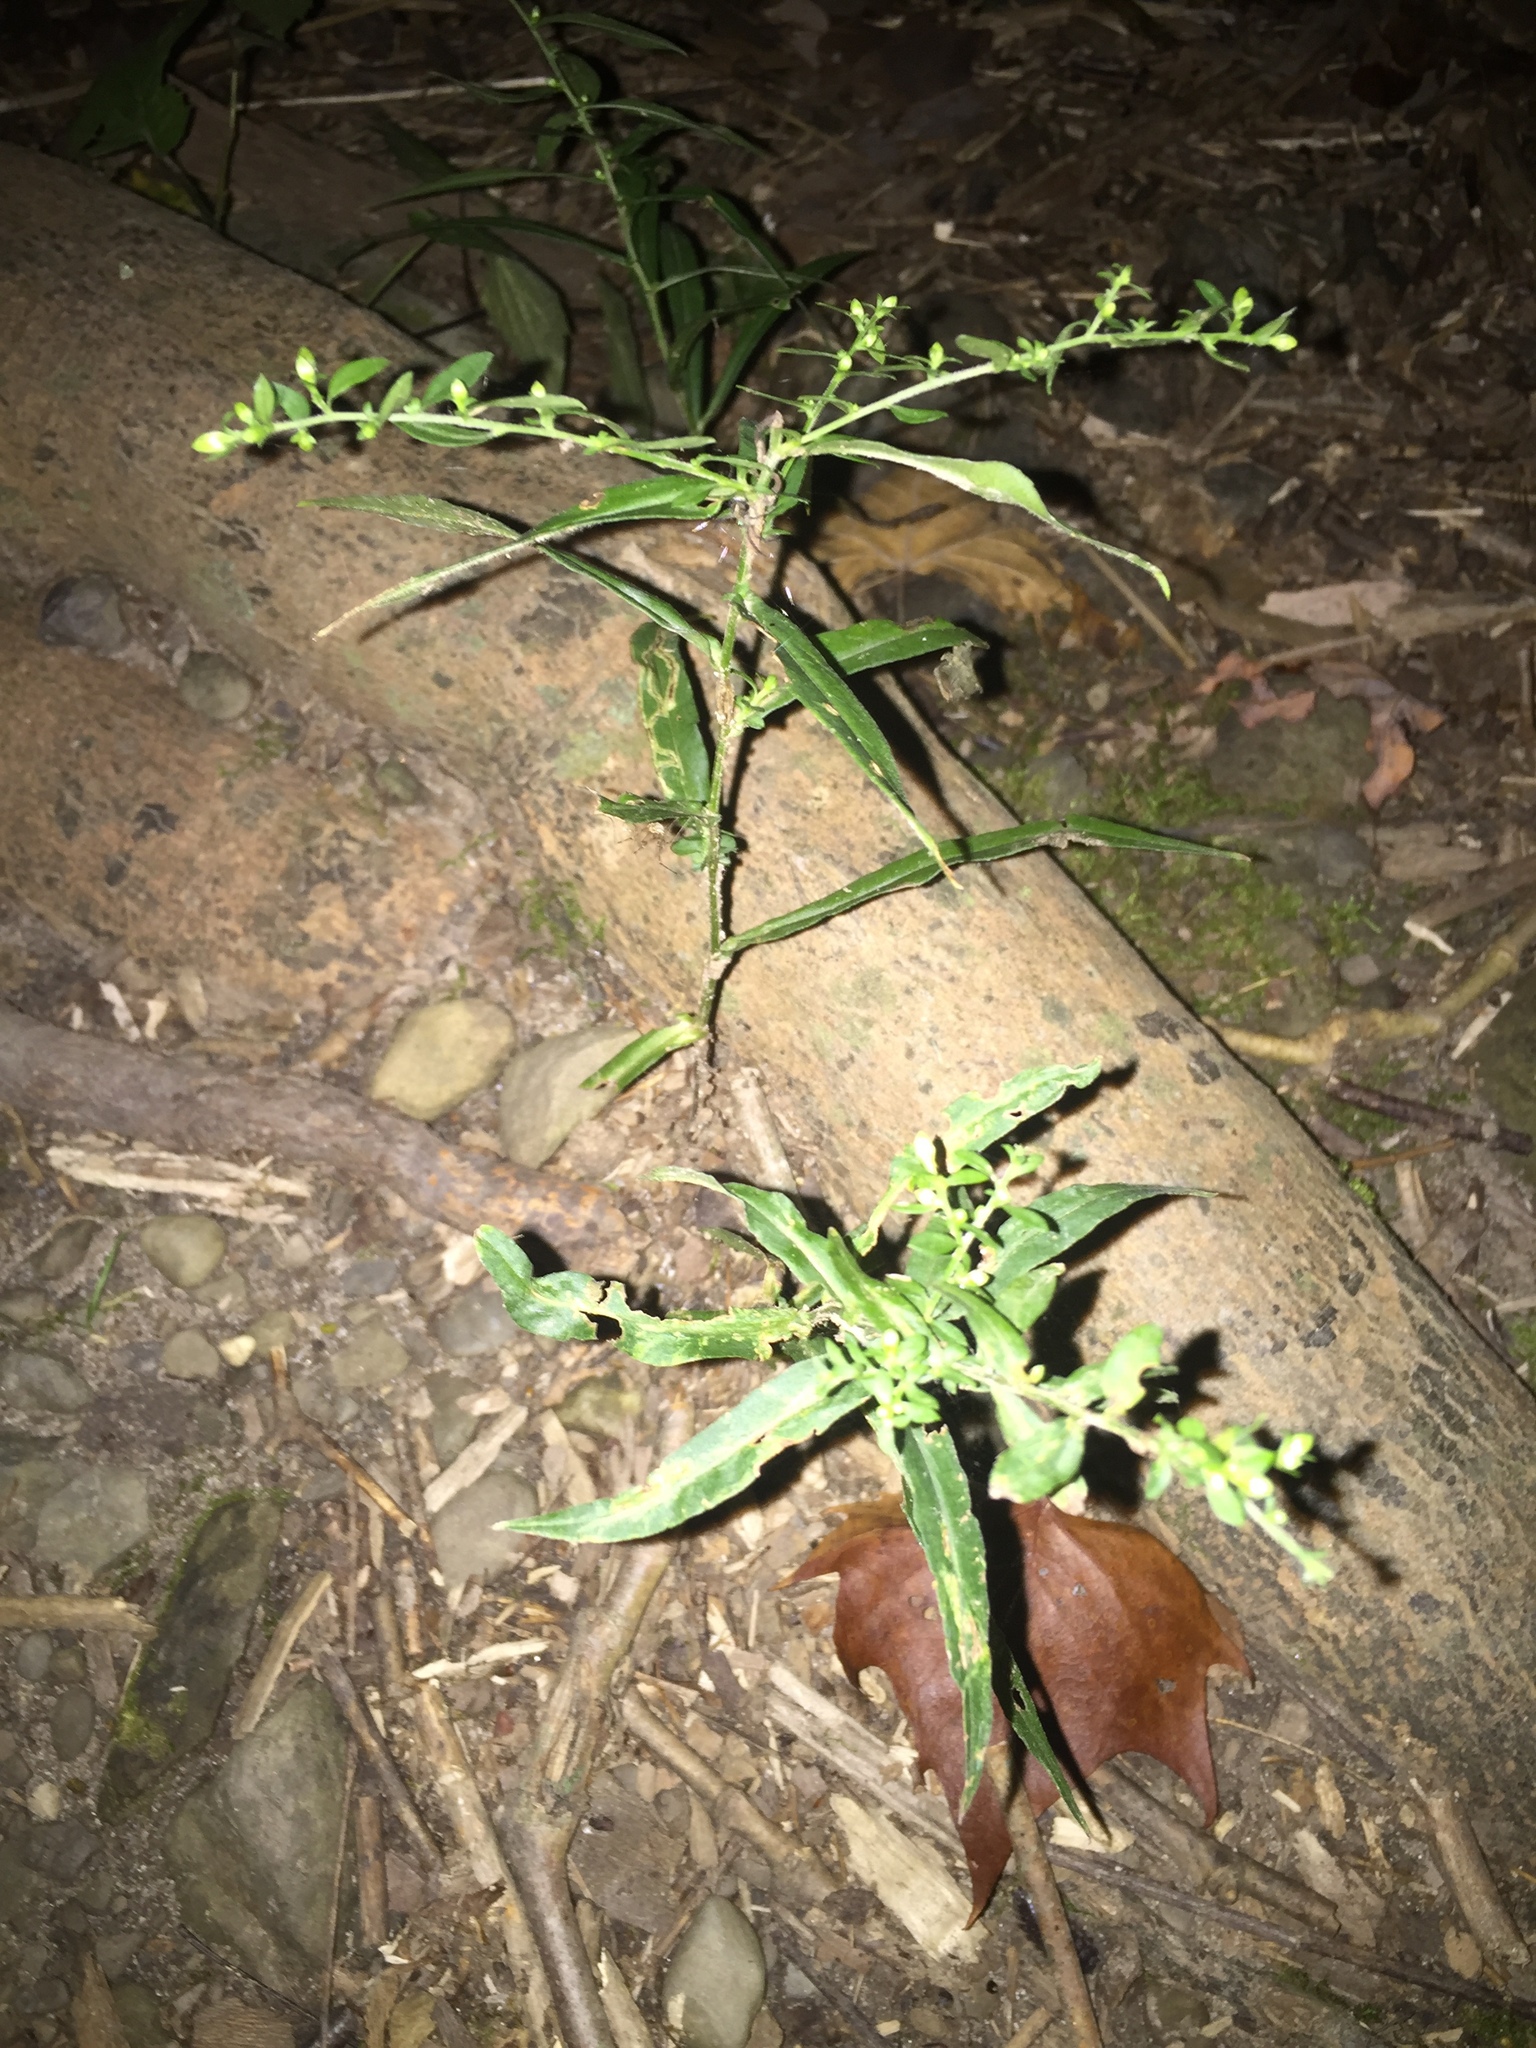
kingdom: Plantae
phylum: Tracheophyta
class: Magnoliopsida
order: Asterales
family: Asteraceae
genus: Symphyotrichum
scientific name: Symphyotrichum lateriflorum
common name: Calico aster
